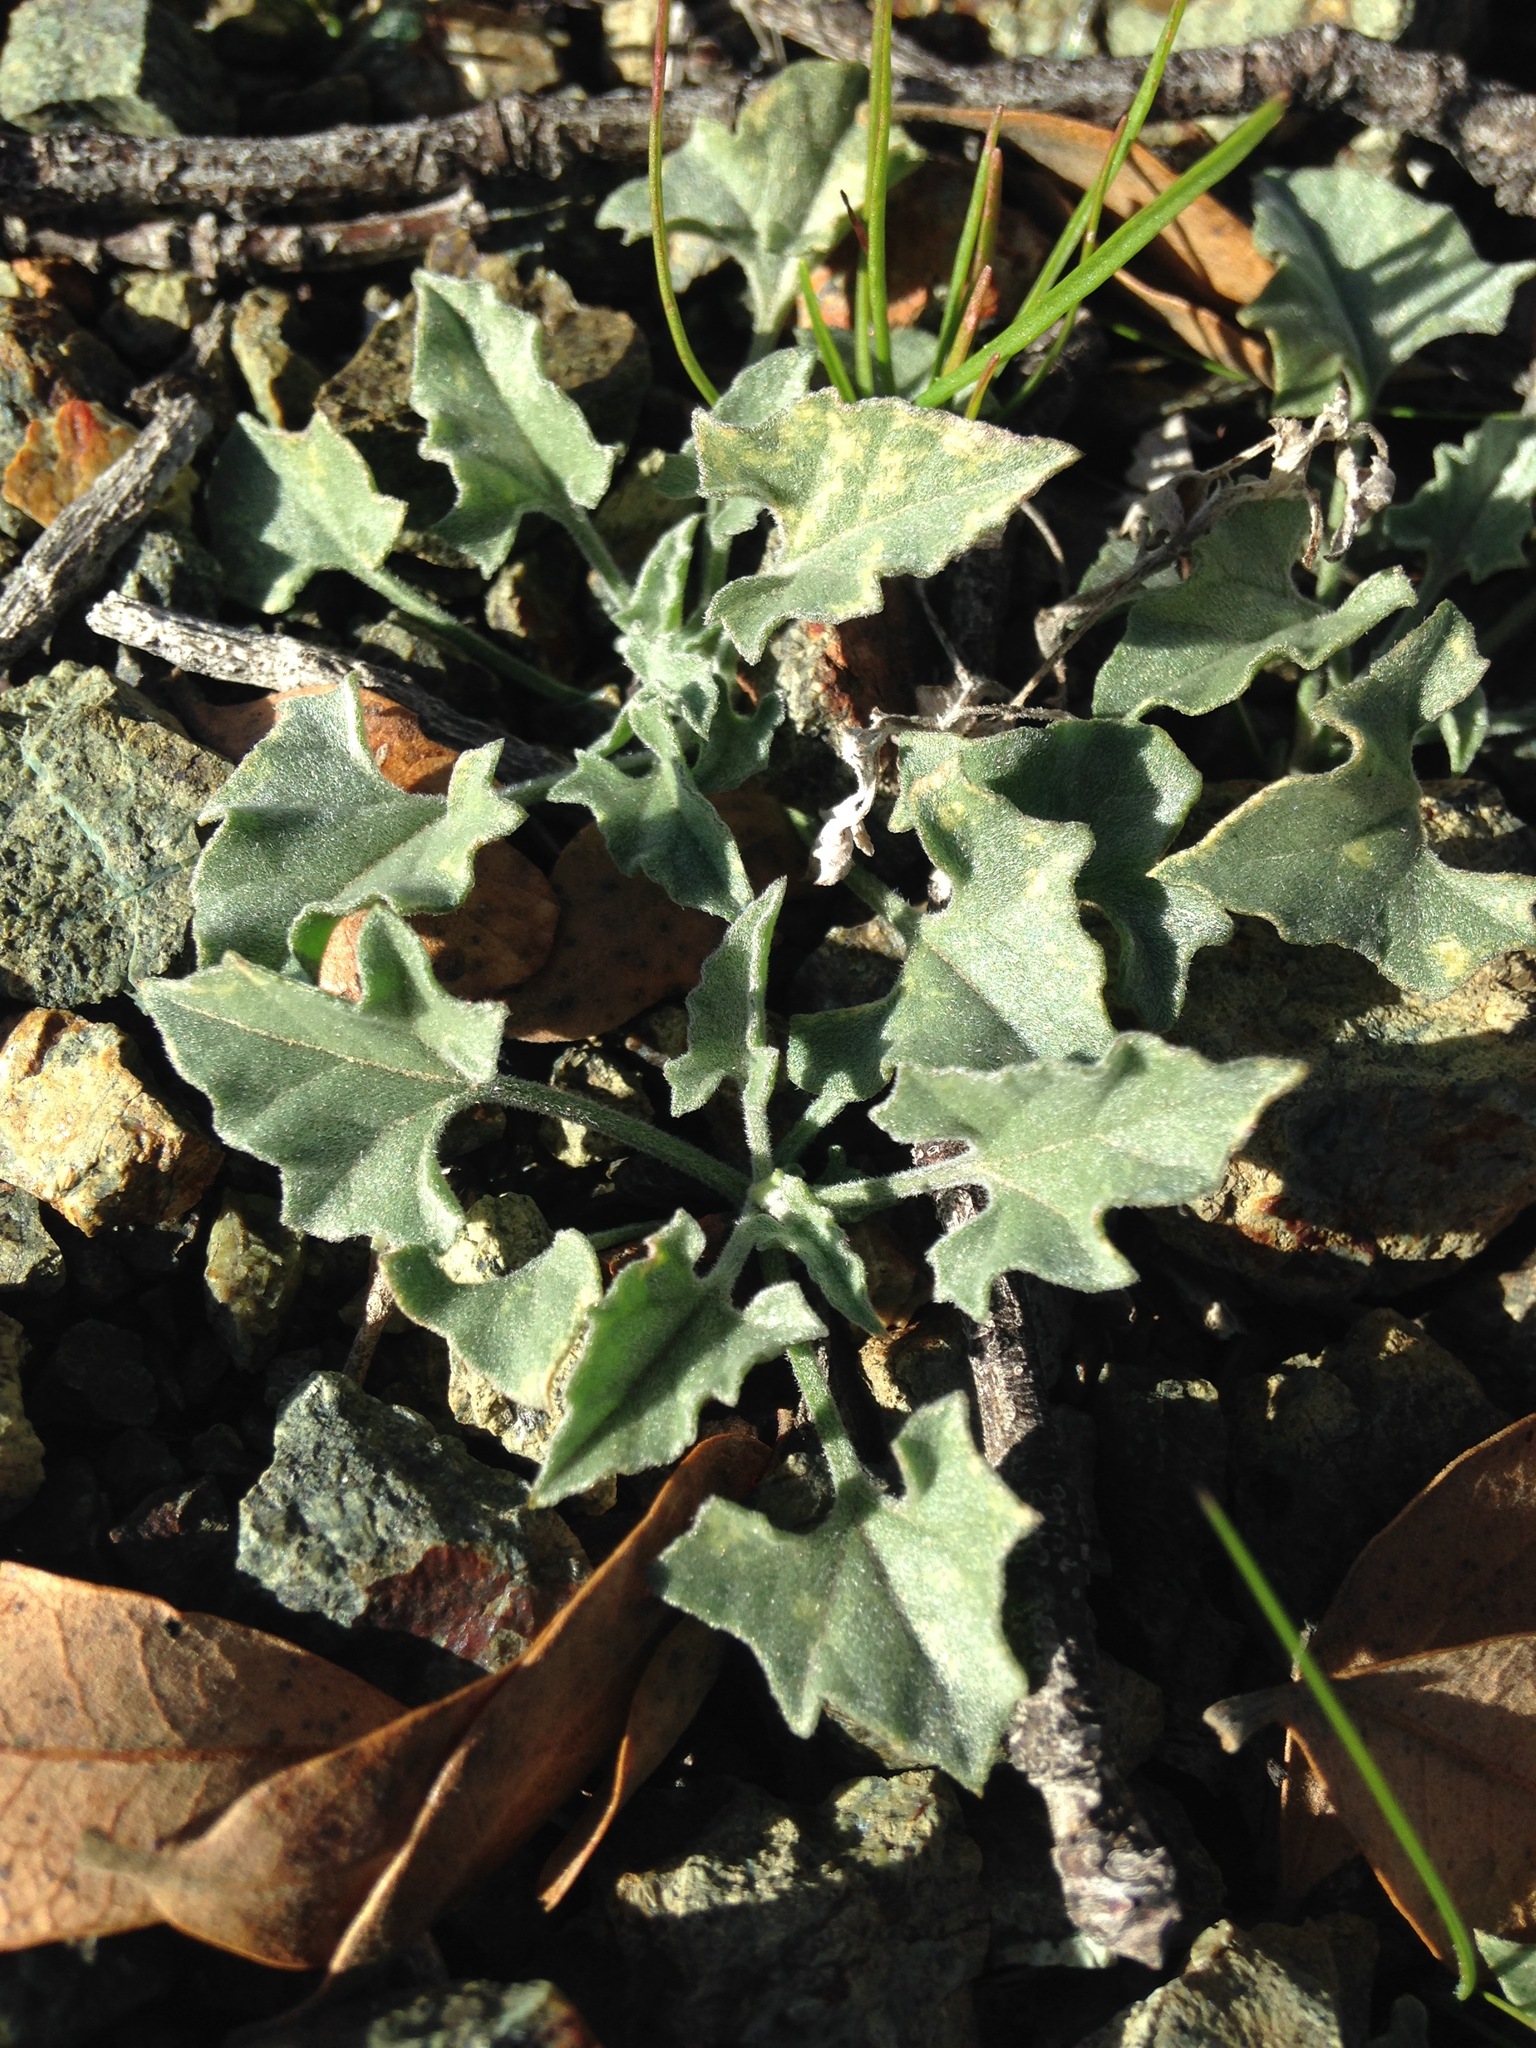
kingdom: Plantae
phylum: Tracheophyta
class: Magnoliopsida
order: Solanales
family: Convolvulaceae
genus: Calystegia
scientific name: Calystegia collina
